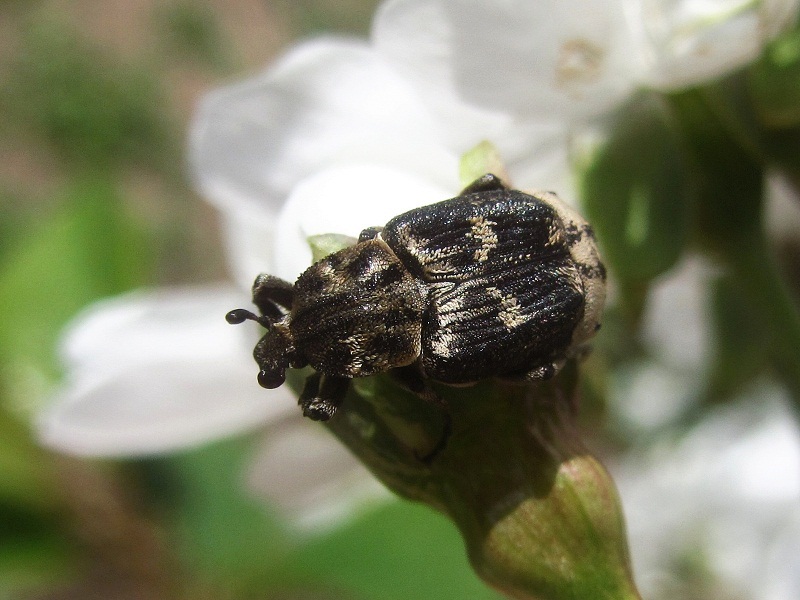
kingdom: Animalia
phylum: Arthropoda
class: Insecta
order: Coleoptera
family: Scarabaeidae
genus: Valgus
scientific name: Valgus hemipterus
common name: Bug flower chafer
